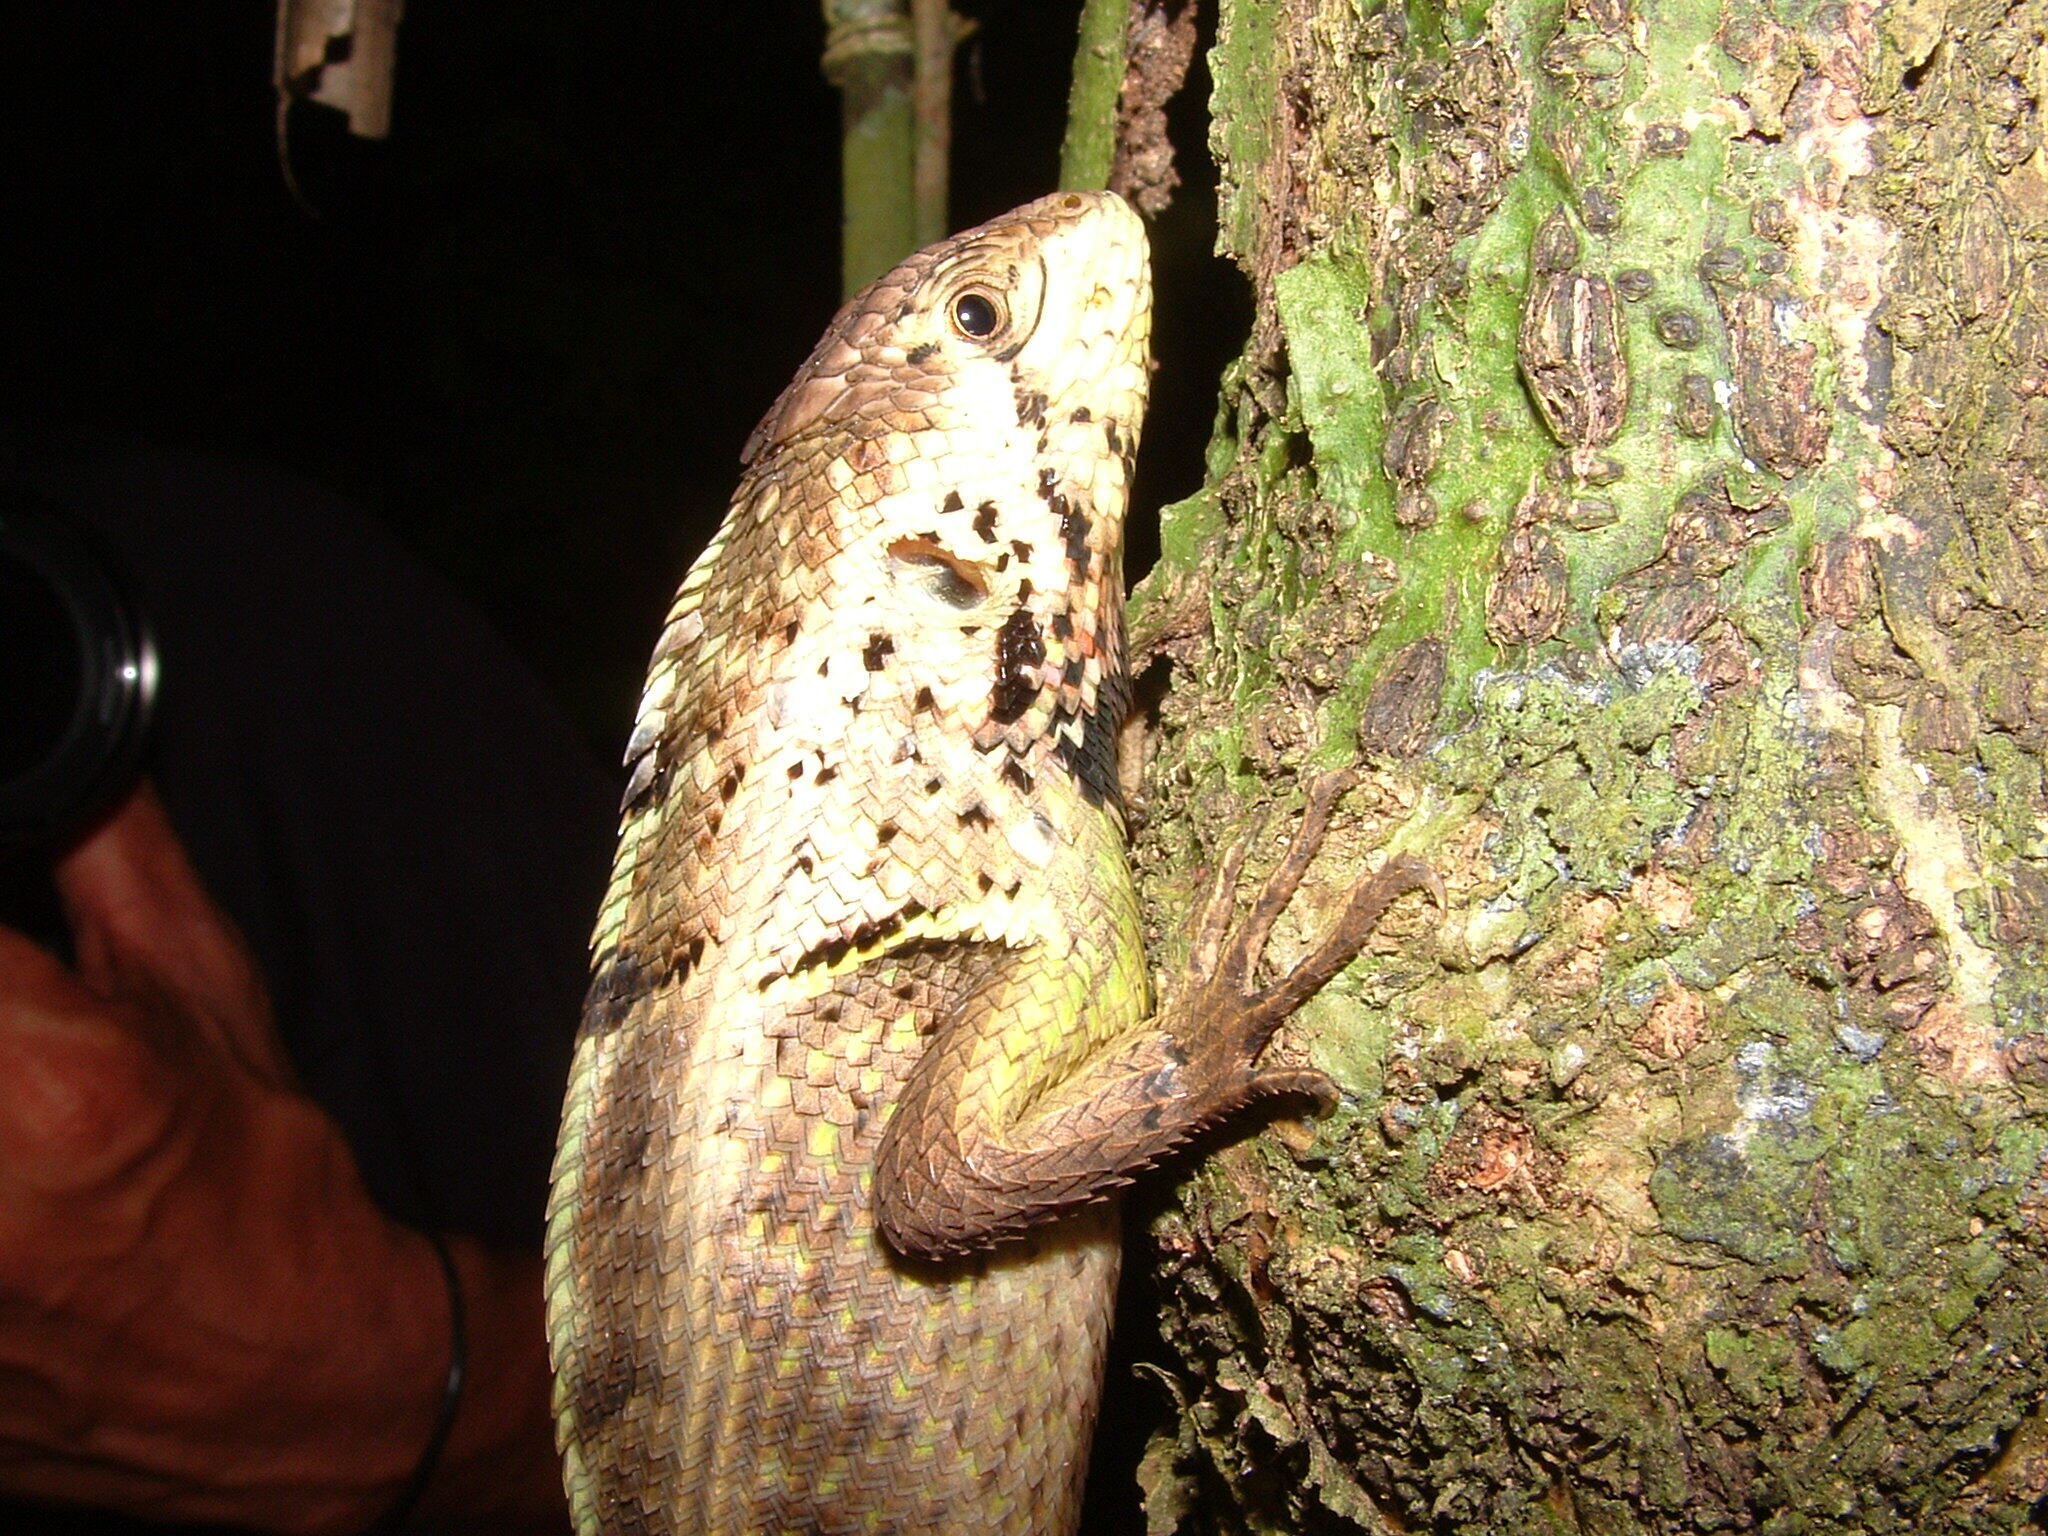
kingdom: Animalia
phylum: Chordata
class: Squamata
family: Tropiduridae
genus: Stenocercus
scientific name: Stenocercus iridescens
